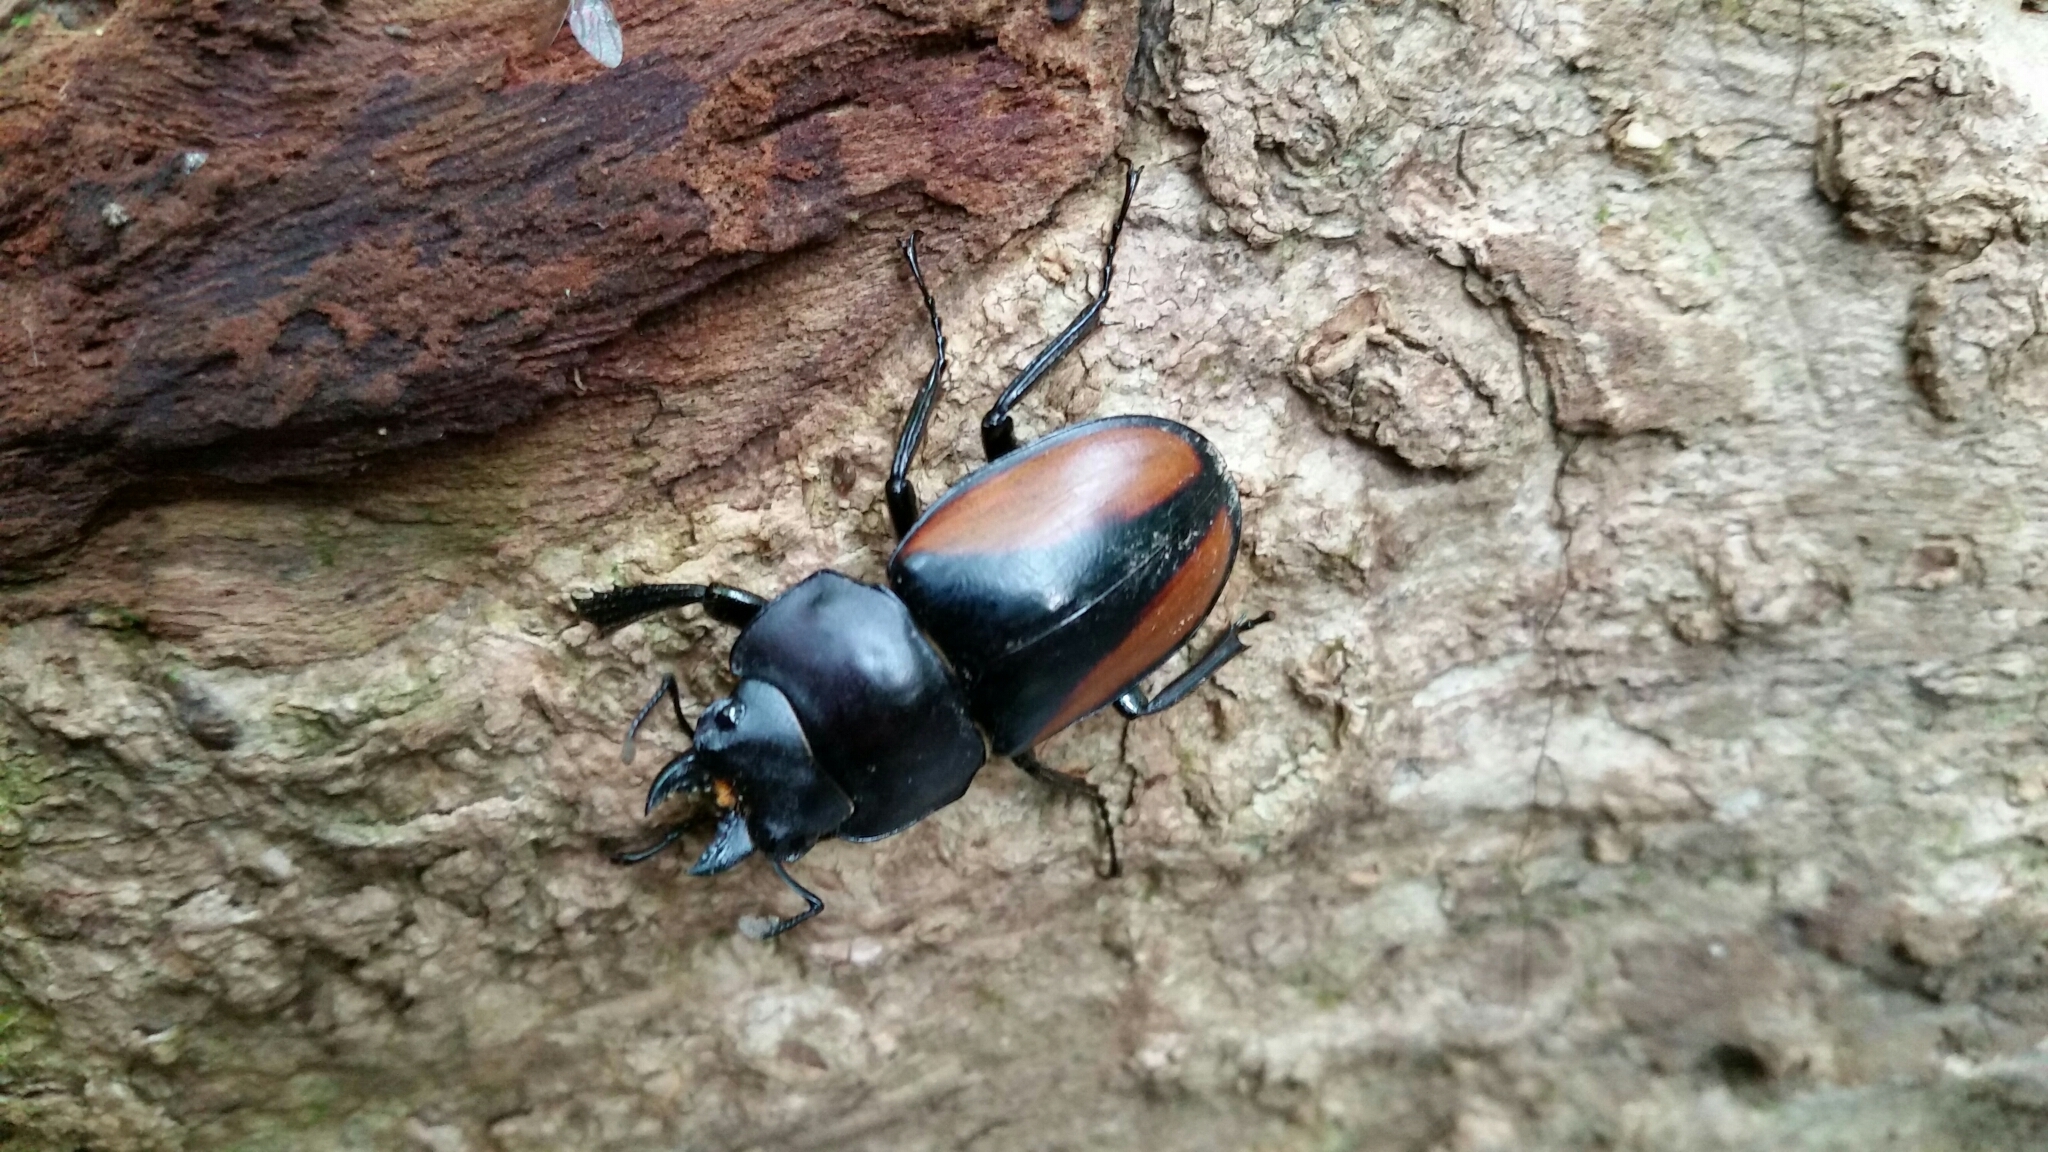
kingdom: Animalia
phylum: Arthropoda
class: Insecta
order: Coleoptera
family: Lucanidae
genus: Neolucanus
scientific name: Neolucanus parryi
